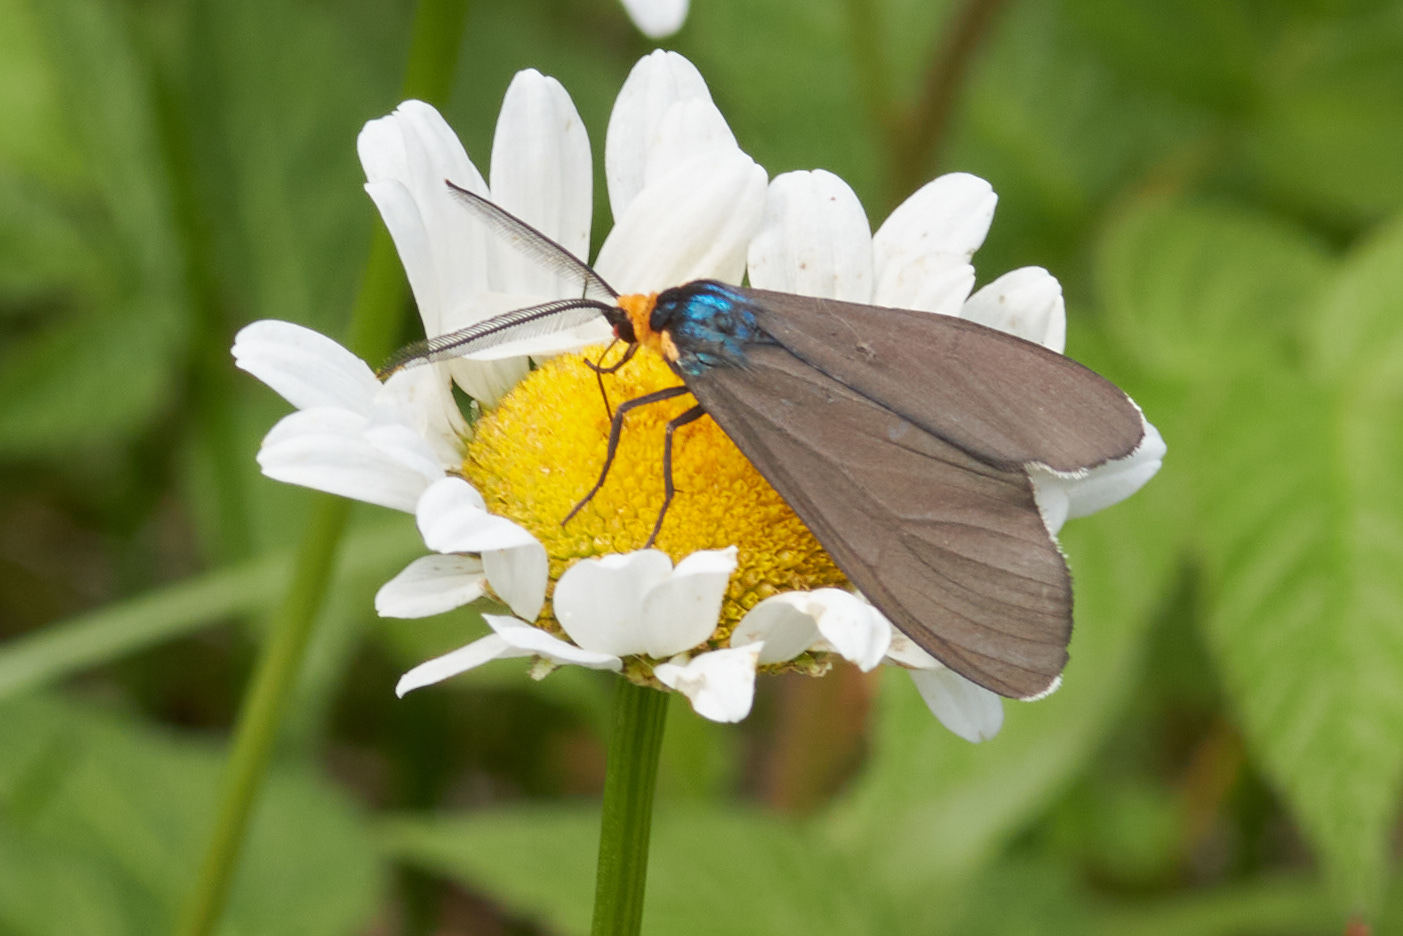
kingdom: Animalia
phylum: Arthropoda
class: Insecta
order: Lepidoptera
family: Erebidae
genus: Ctenucha
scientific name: Ctenucha virginica
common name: Virginia ctenucha moth
